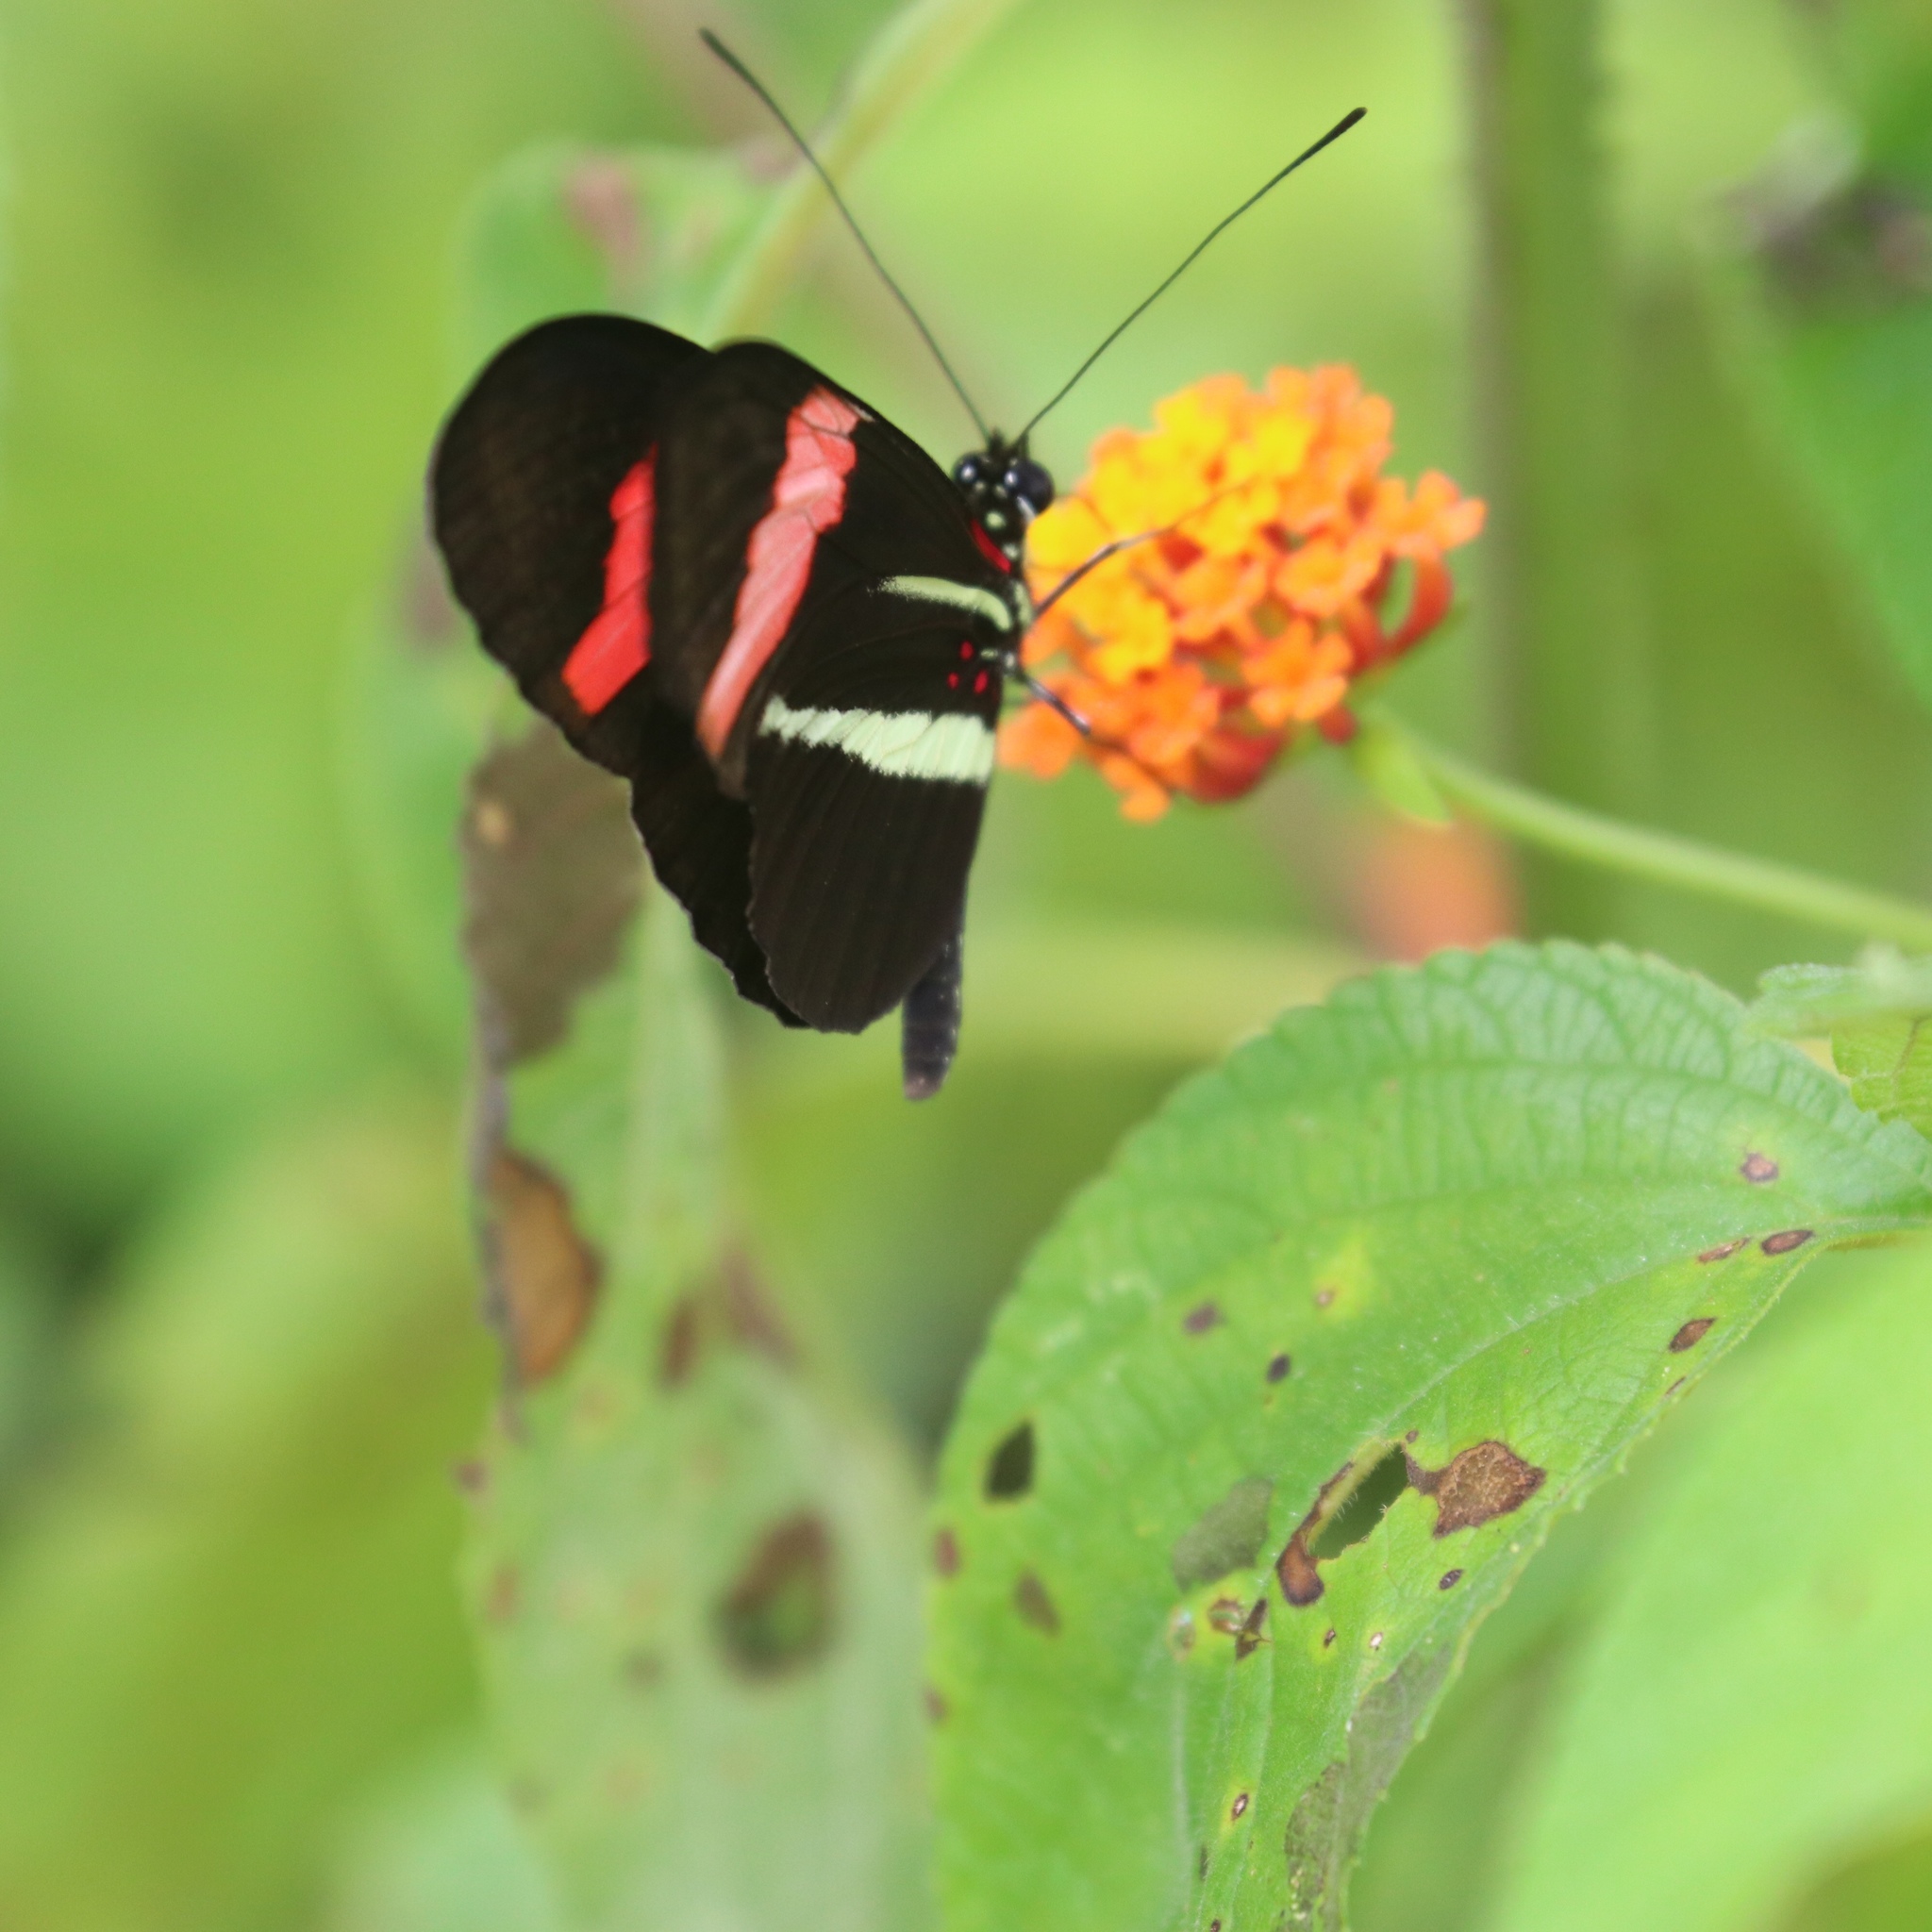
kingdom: Animalia
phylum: Arthropoda
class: Insecta
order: Lepidoptera
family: Nymphalidae
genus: Tirumala
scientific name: Tirumala petiverana
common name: Blue monarch
